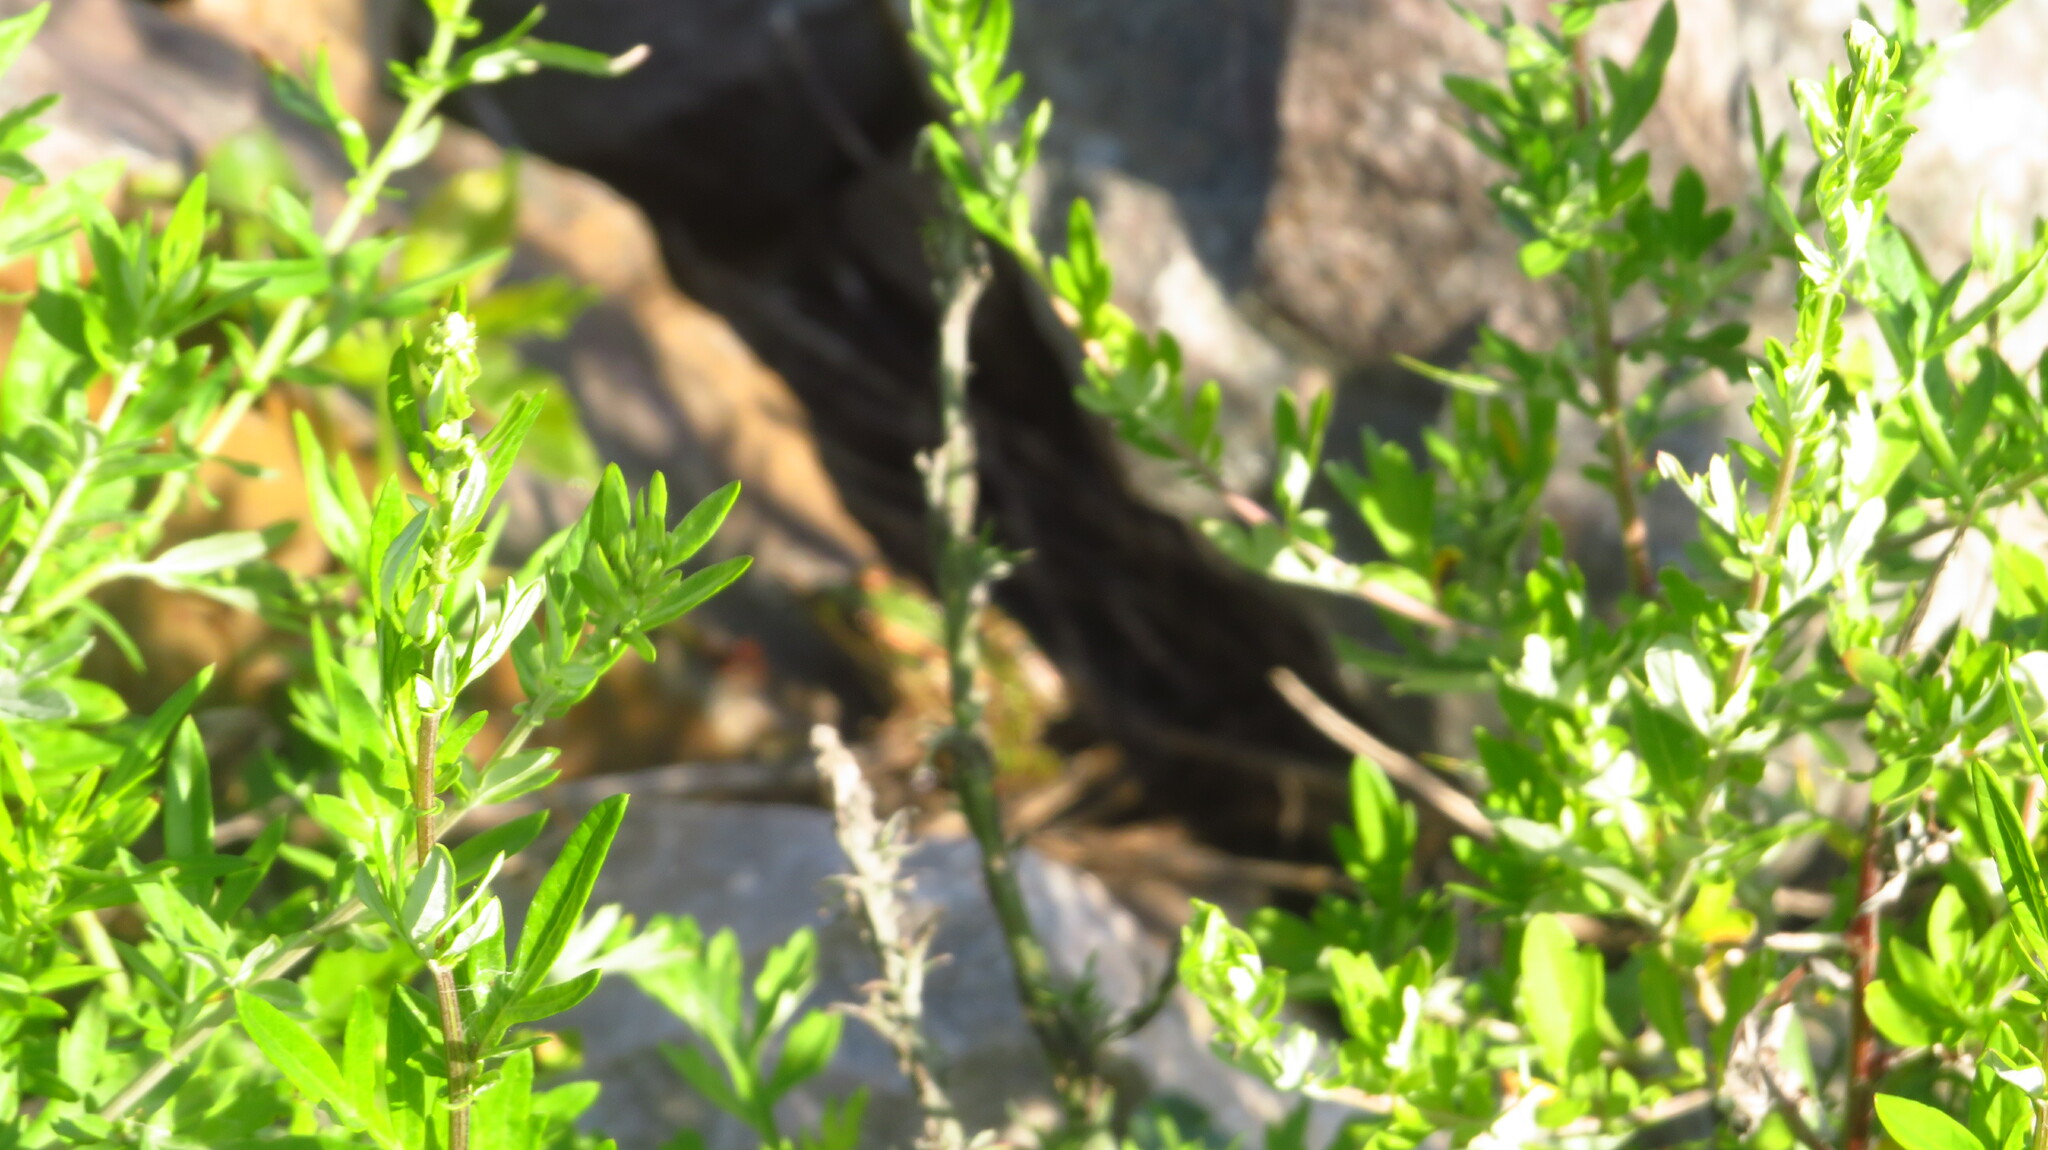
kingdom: Plantae
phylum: Tracheophyta
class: Magnoliopsida
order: Asterales
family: Asteraceae
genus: Artemisia
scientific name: Artemisia vulgaris
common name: Mugwort
